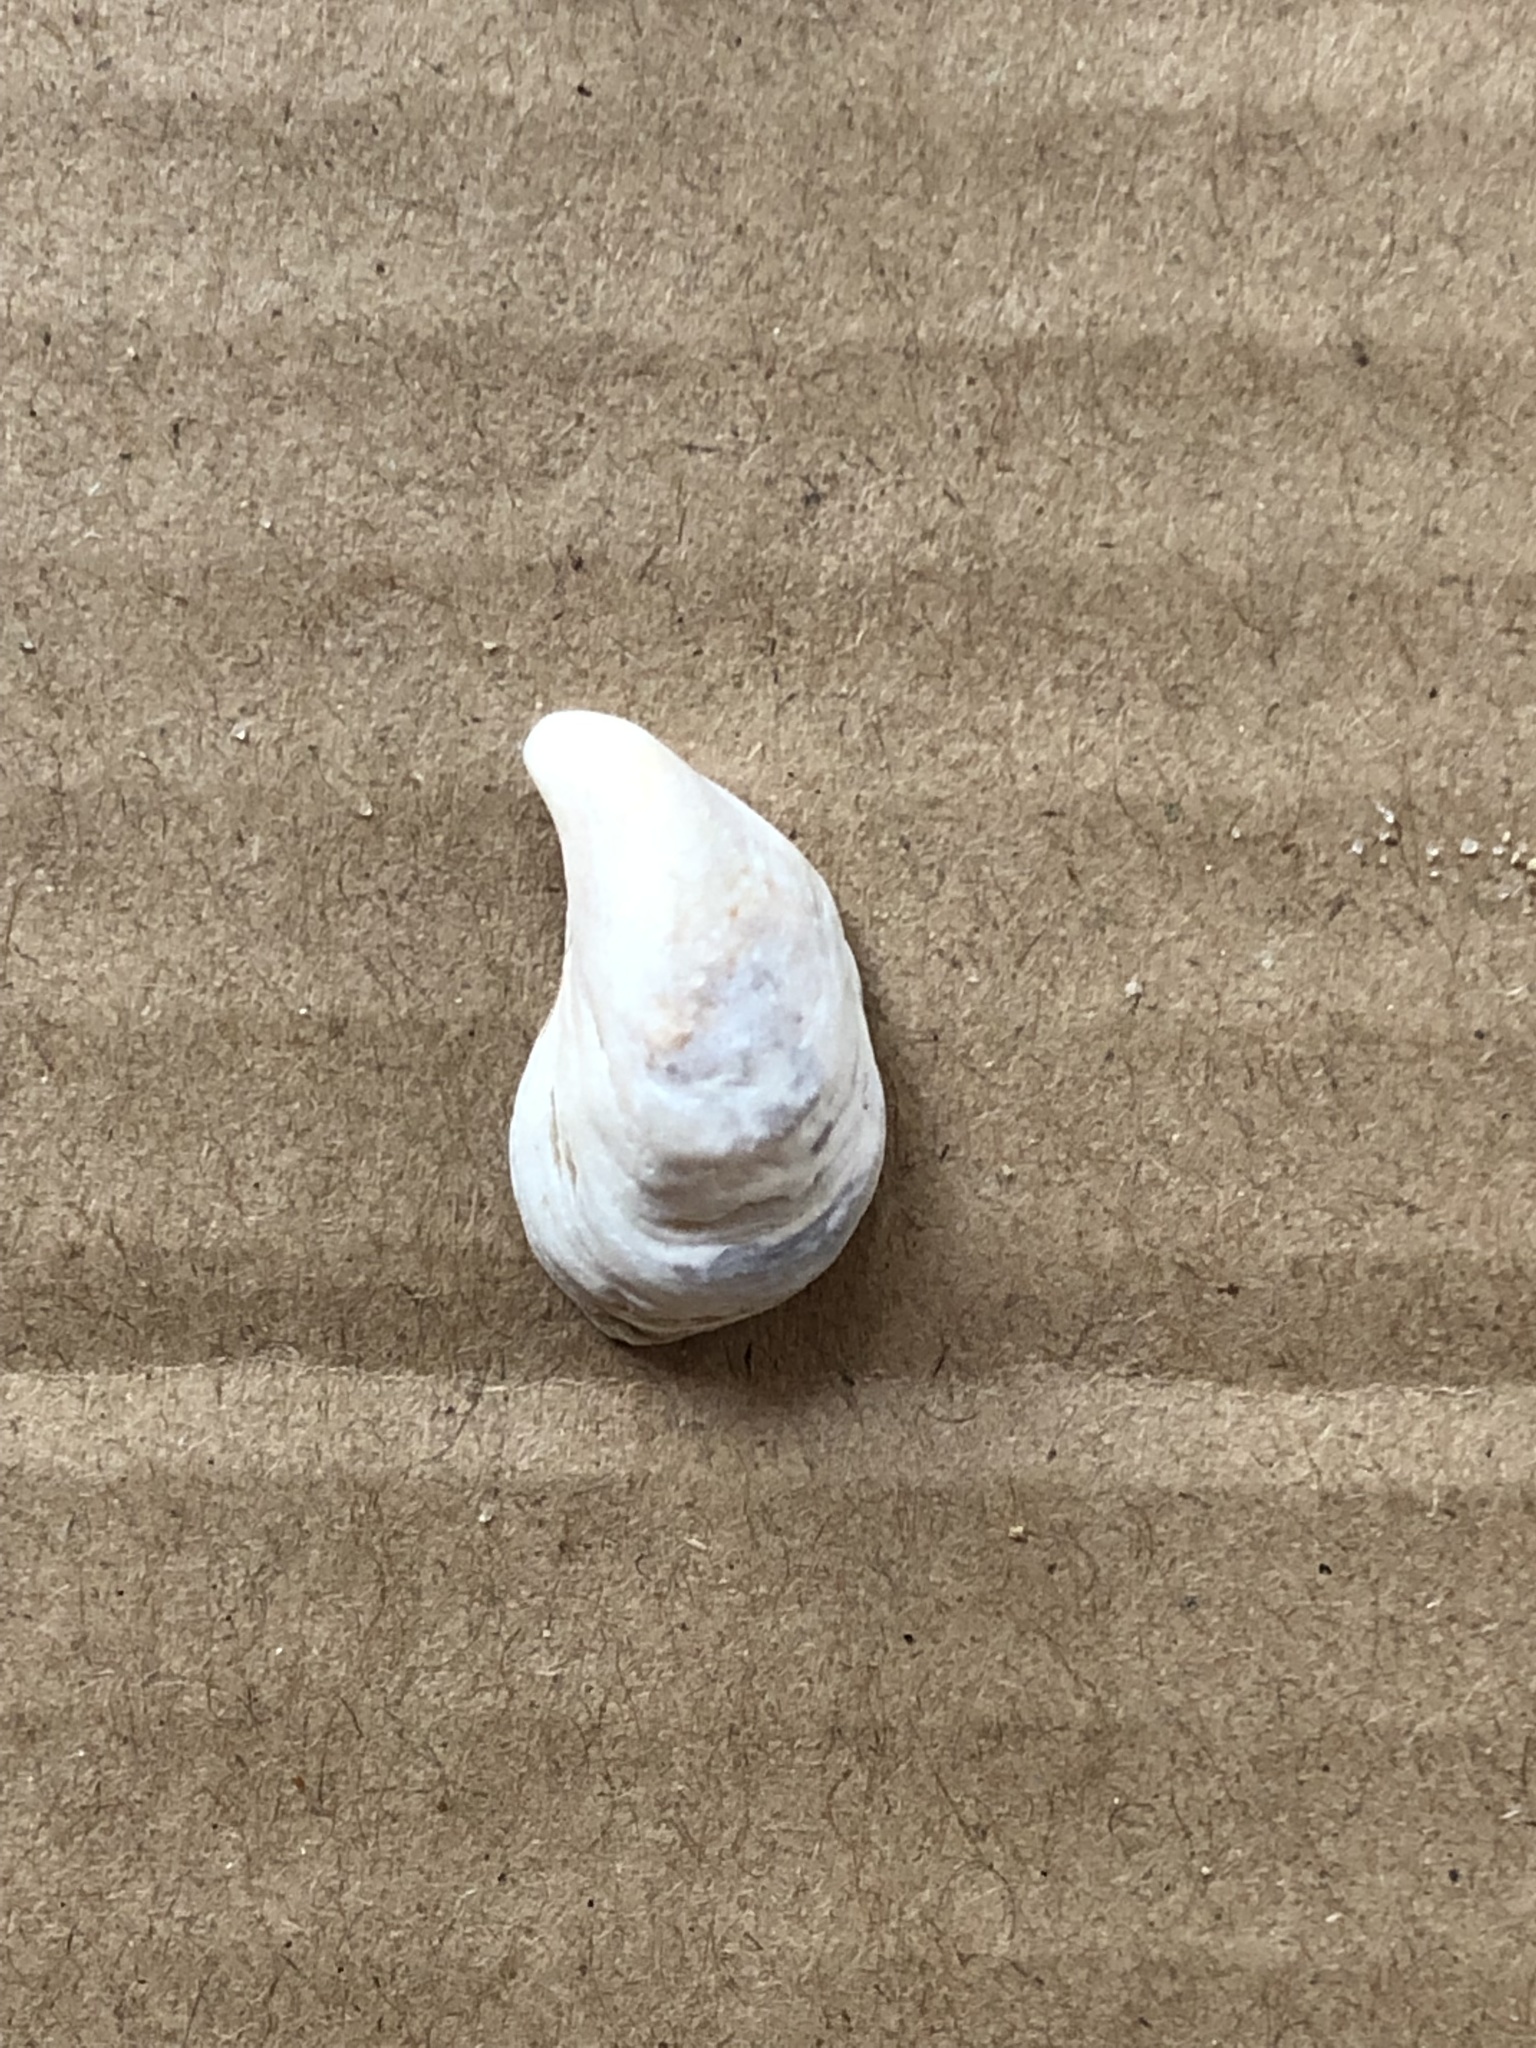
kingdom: Animalia
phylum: Mollusca
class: Bivalvia
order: Myida
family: Dreissenidae
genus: Dreissena
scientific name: Dreissena bugensis
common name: Quagga mussel
